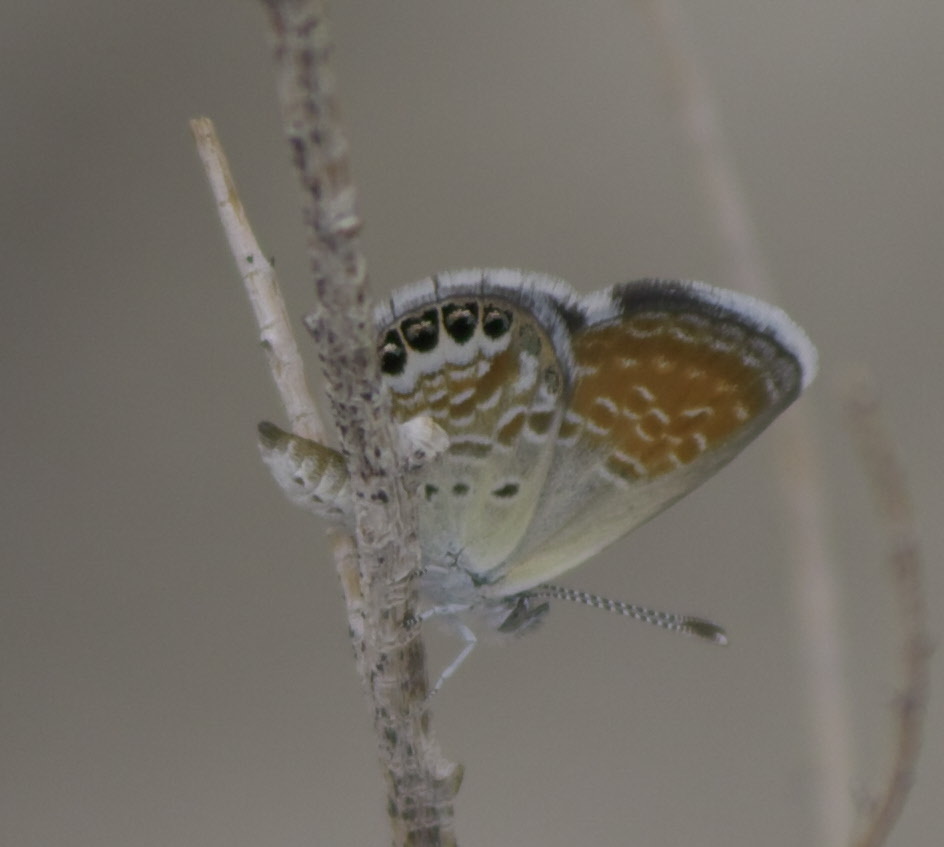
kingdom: Animalia
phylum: Arthropoda
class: Insecta
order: Lepidoptera
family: Lycaenidae
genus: Brephidium
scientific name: Brephidium exilis
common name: Pygmy blue
